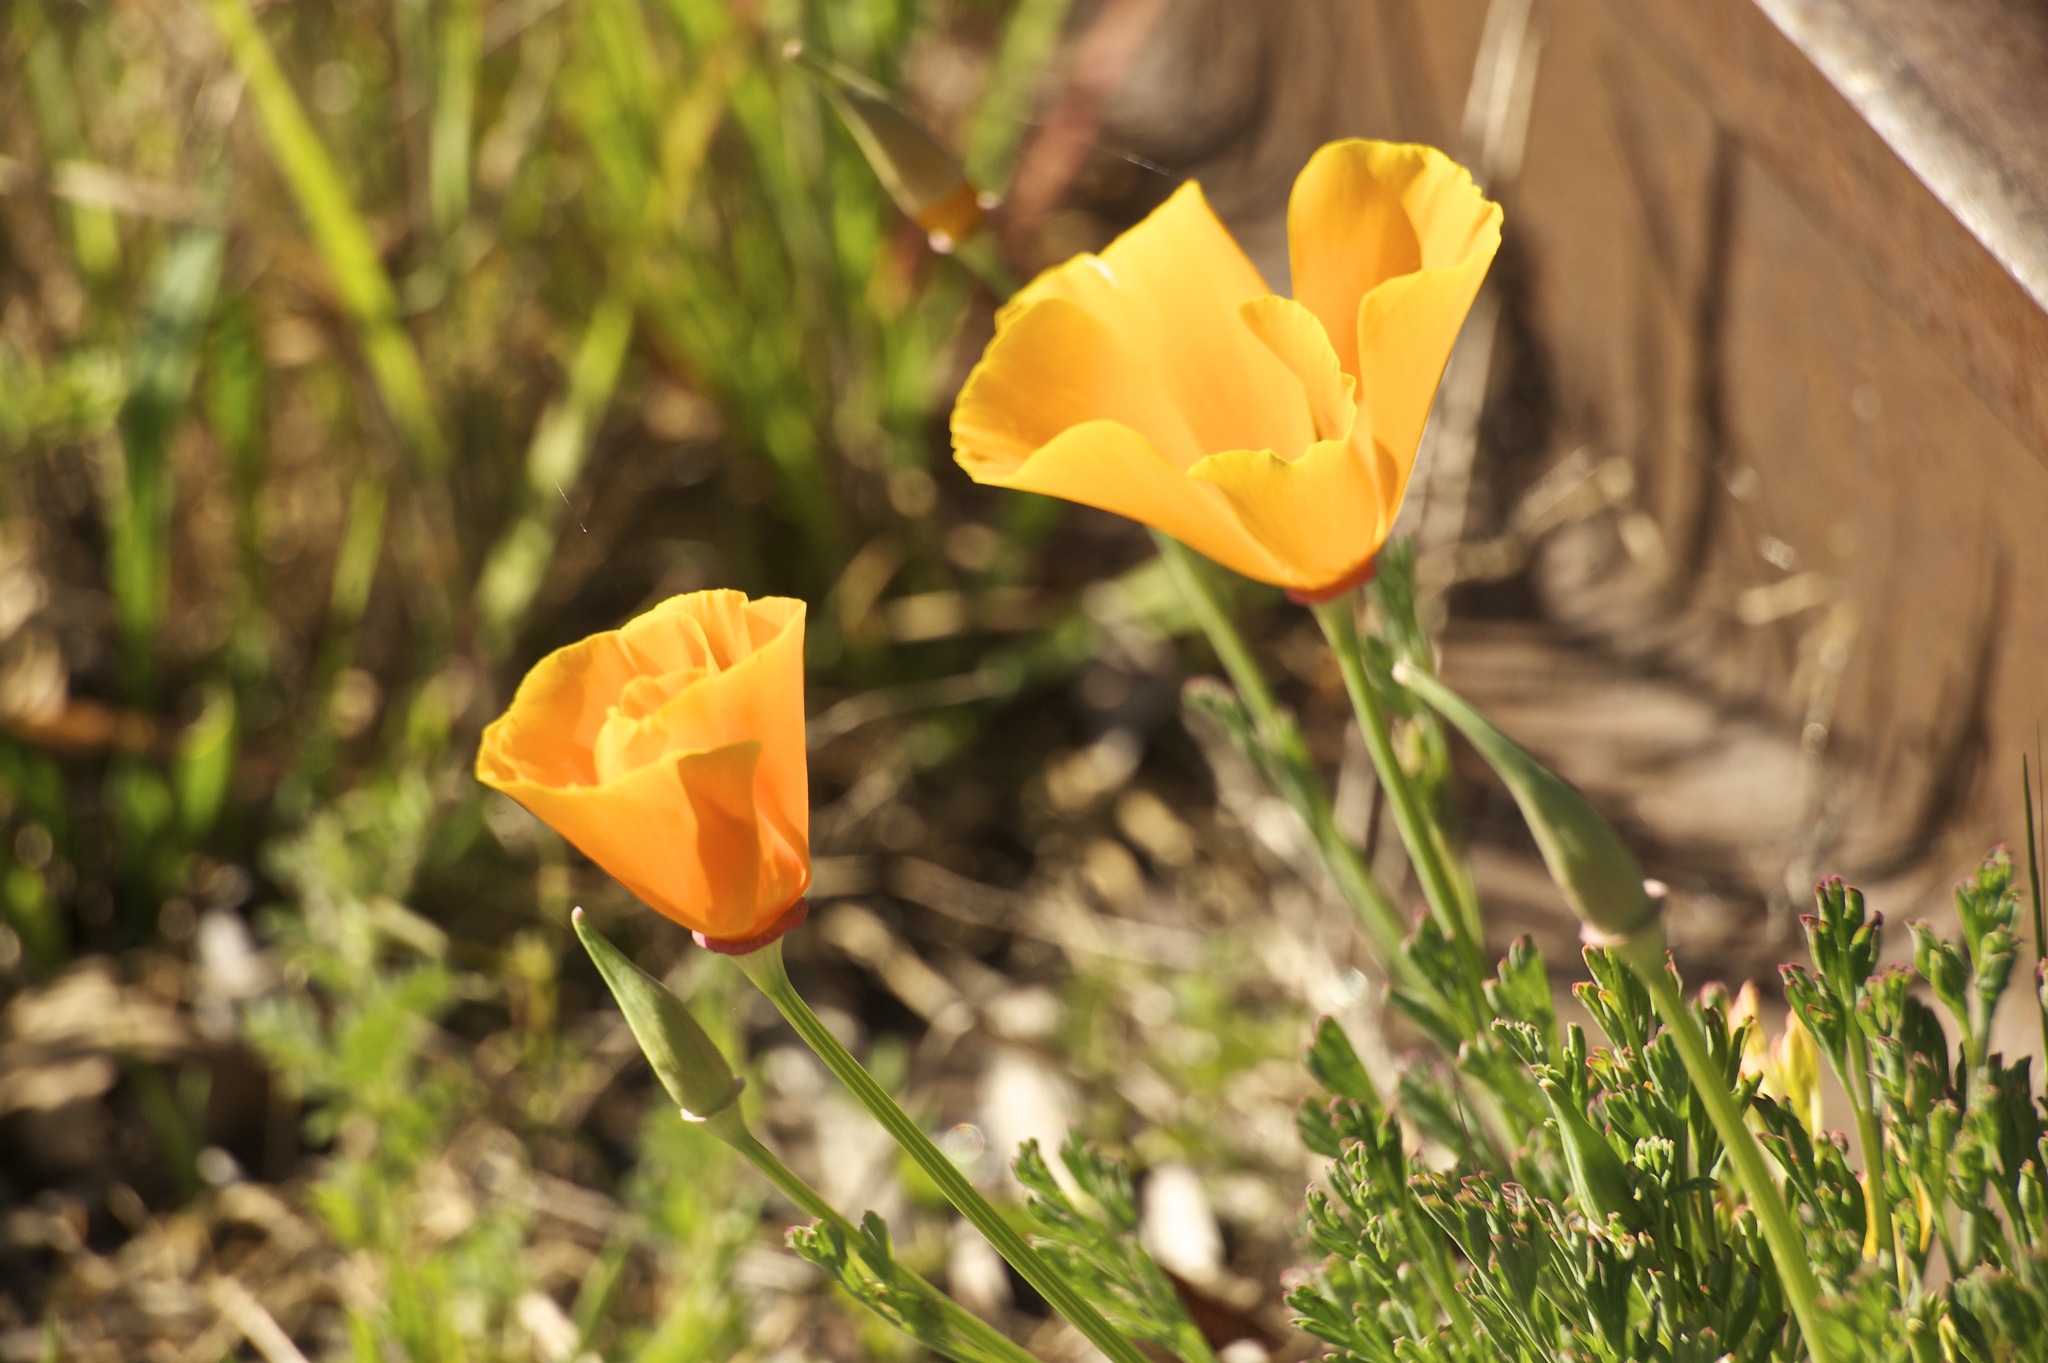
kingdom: Plantae
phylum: Tracheophyta
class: Magnoliopsida
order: Ranunculales
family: Papaveraceae
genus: Eschscholzia
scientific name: Eschscholzia californica
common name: California poppy
